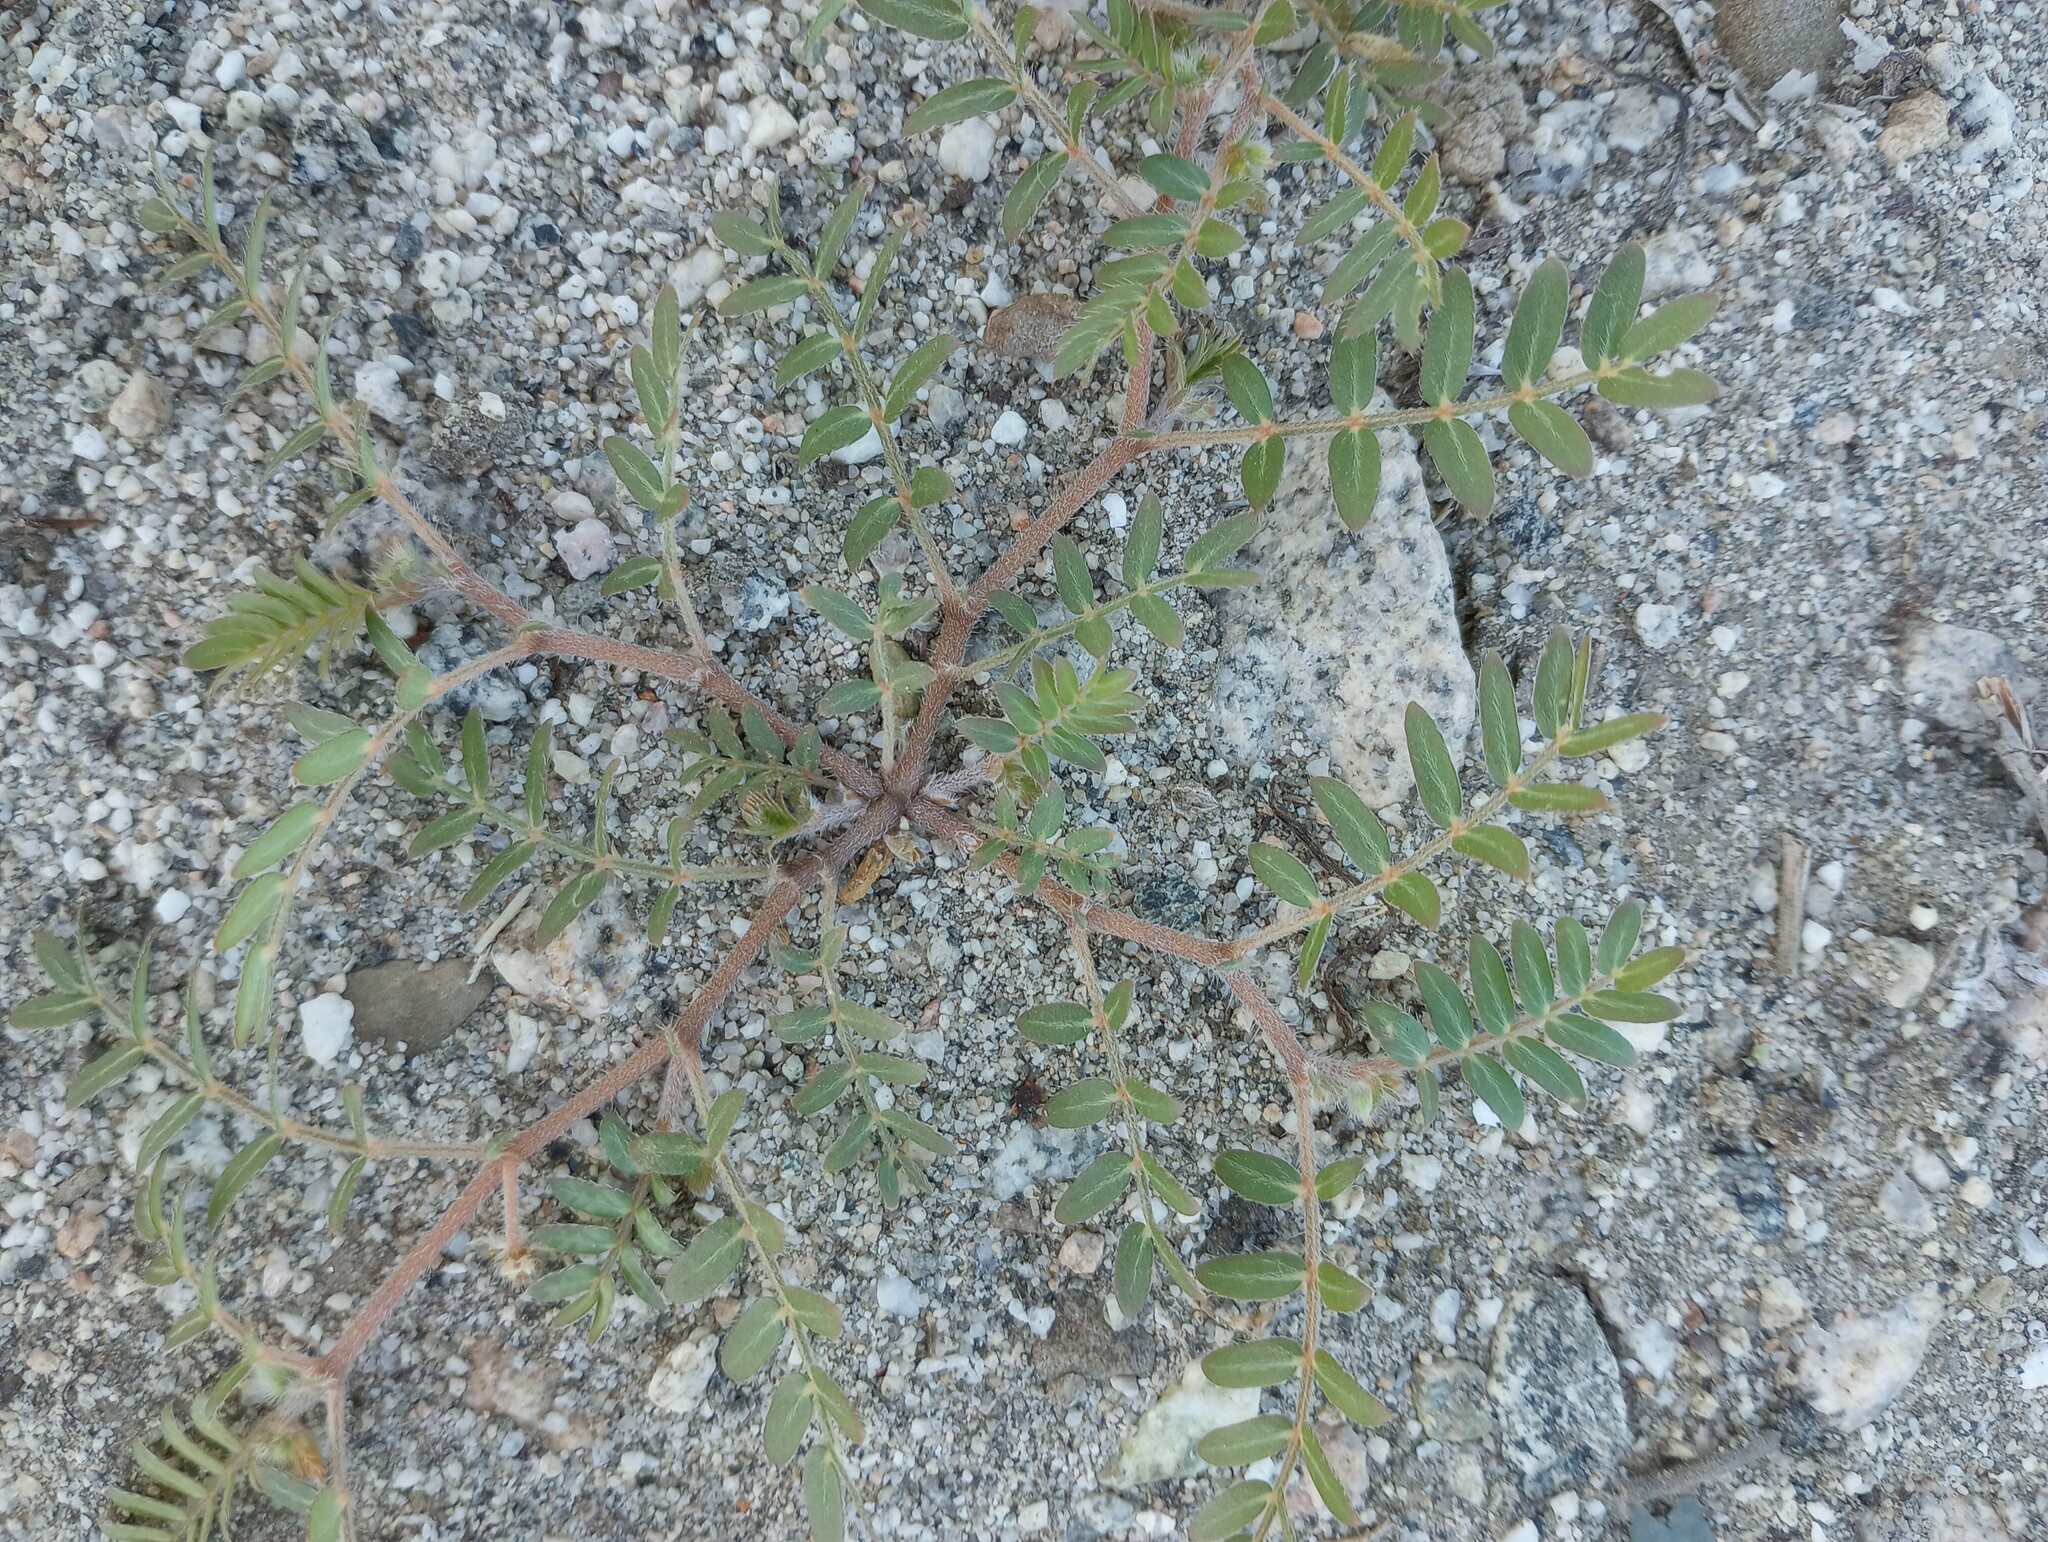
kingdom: Plantae
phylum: Tracheophyta
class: Magnoliopsida
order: Zygophyllales
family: Zygophyllaceae
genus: Tribulus
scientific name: Tribulus terrestris
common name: Puncturevine
